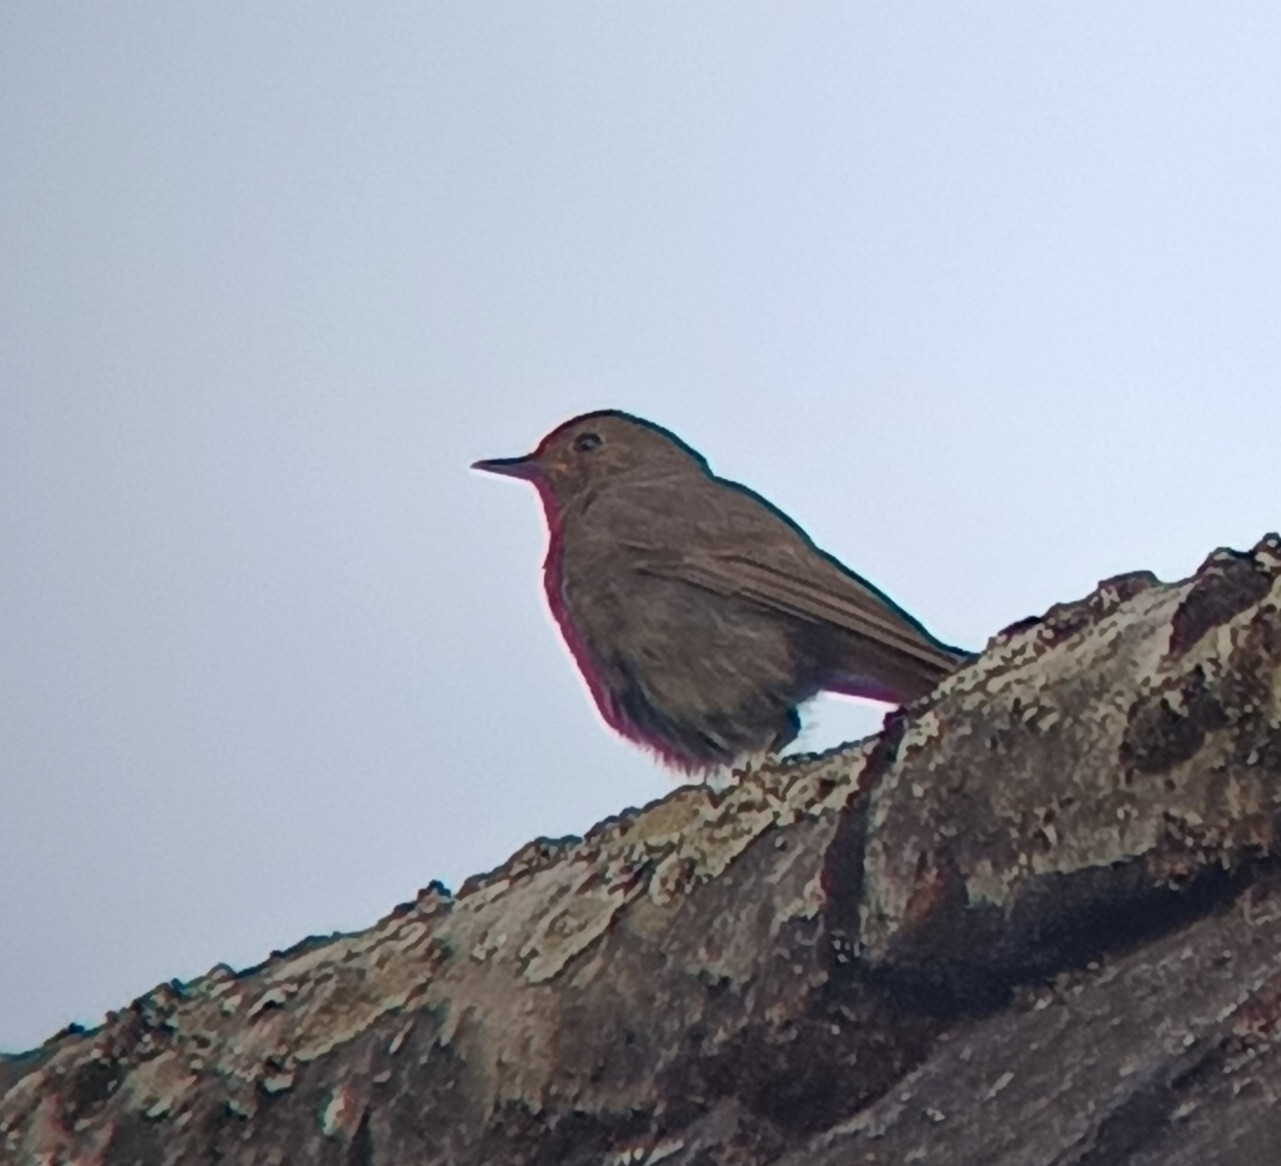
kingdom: Animalia
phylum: Chordata
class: Aves
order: Passeriformes
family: Muscicapidae
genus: Phoenicurus
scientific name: Phoenicurus ochruros
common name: Black redstart
